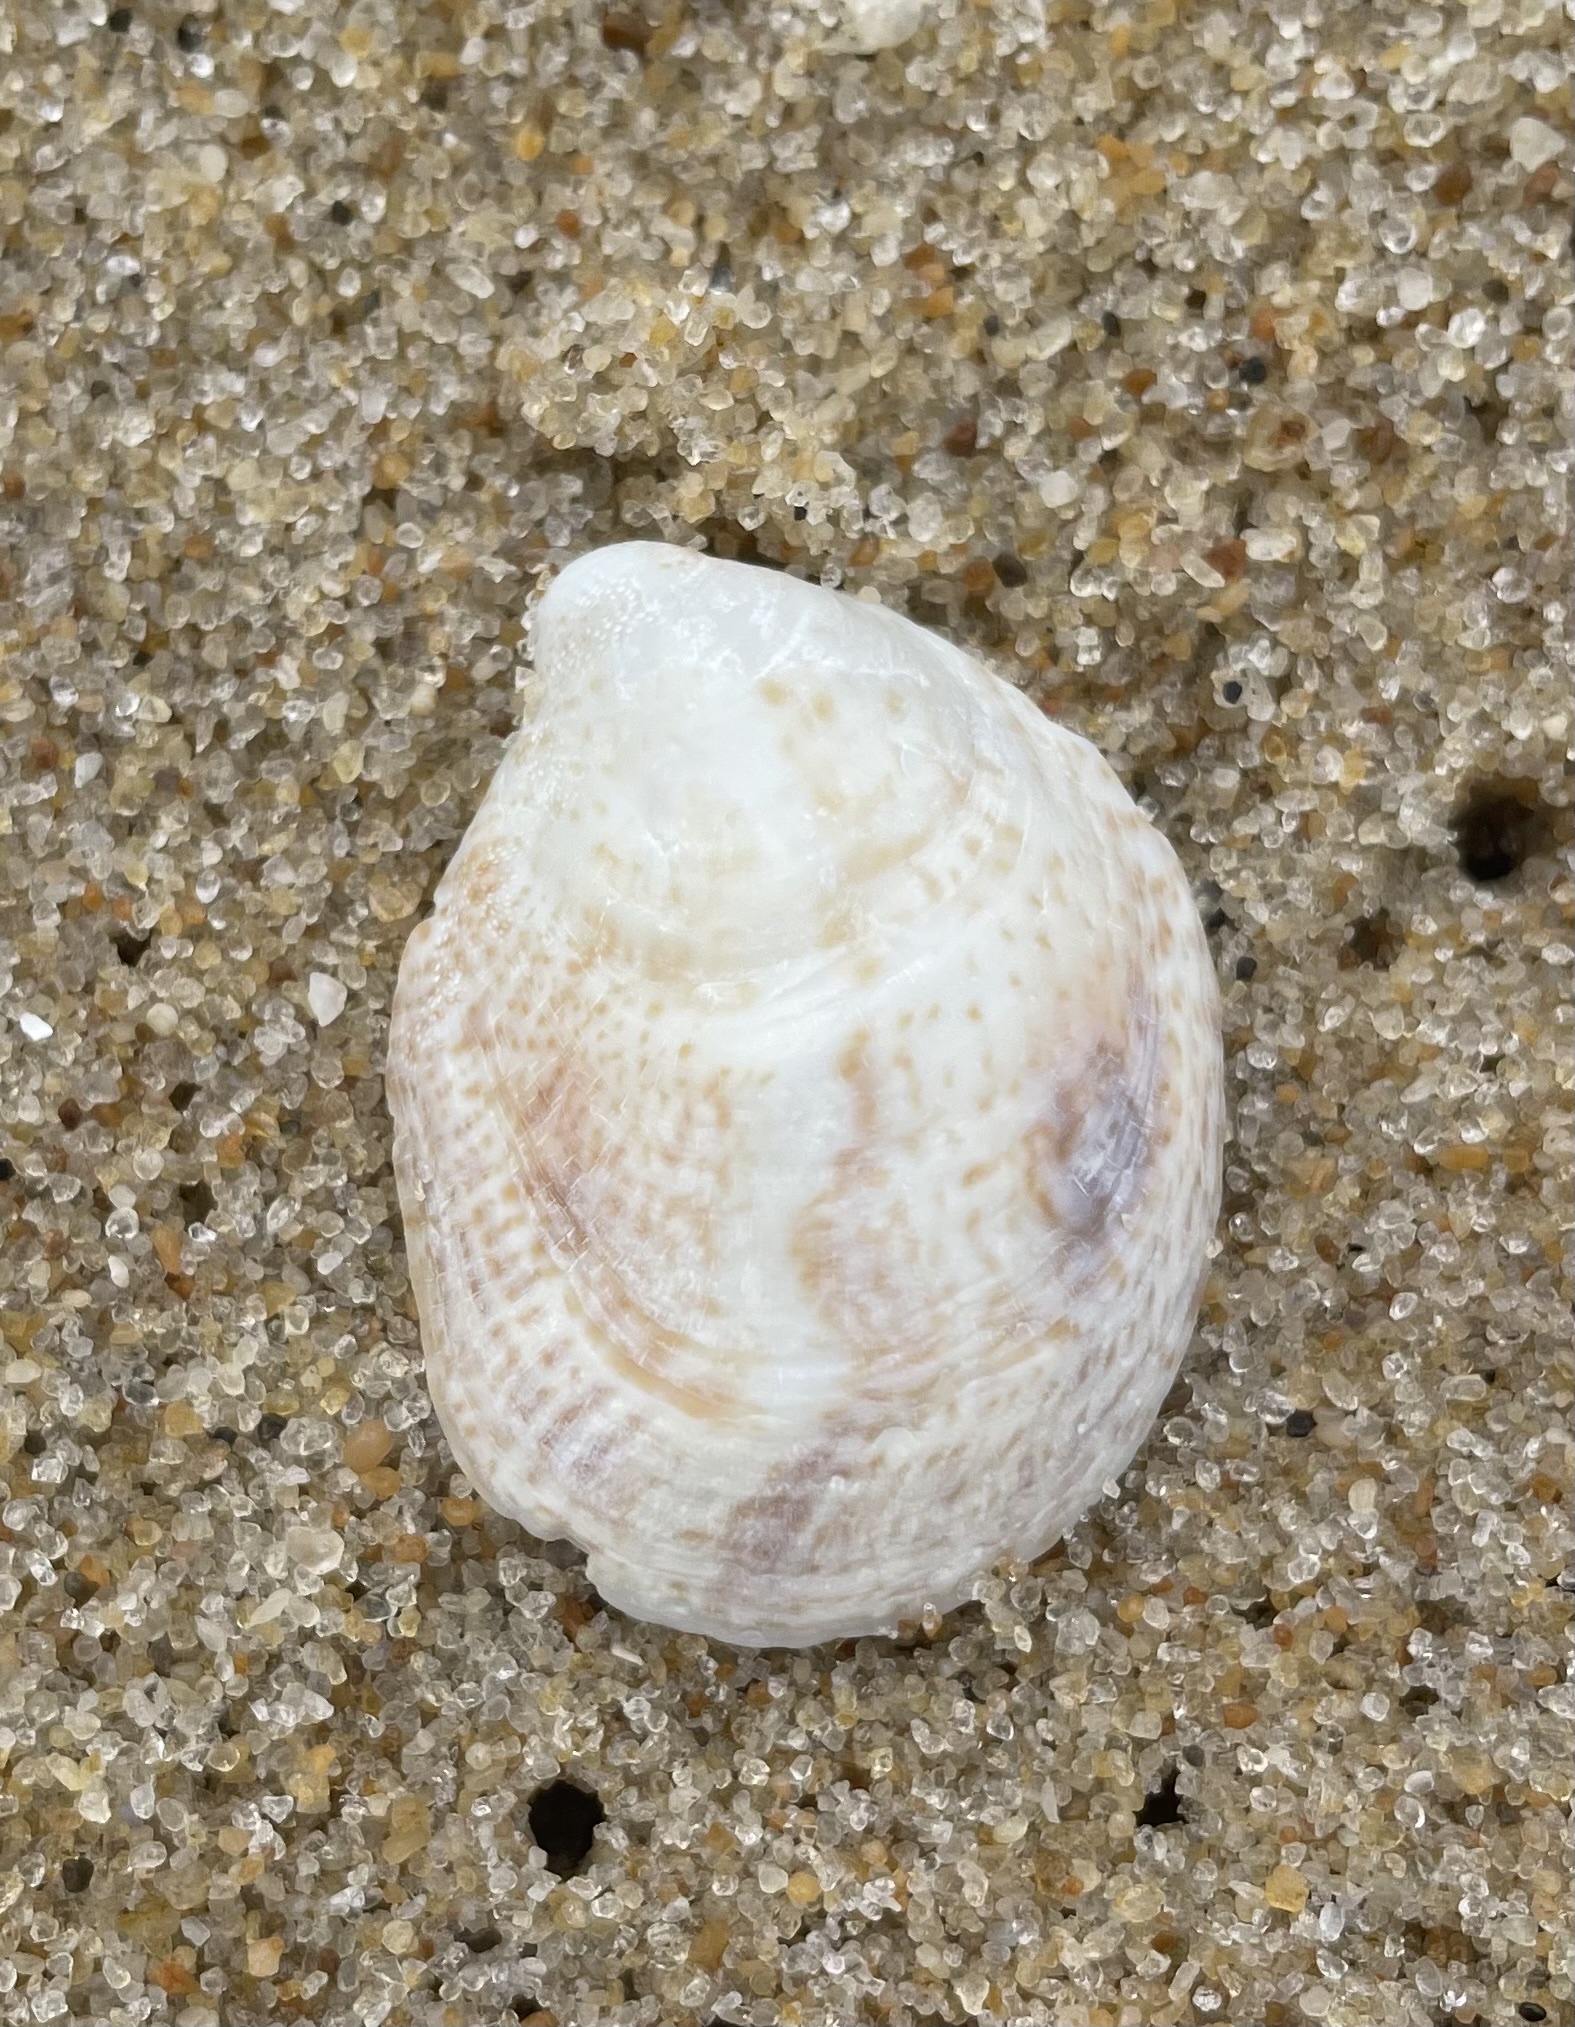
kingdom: Animalia
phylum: Mollusca
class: Gastropoda
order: Littorinimorpha
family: Calyptraeidae
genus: Crepidula
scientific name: Crepidula fornicata
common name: Slipper limpet
